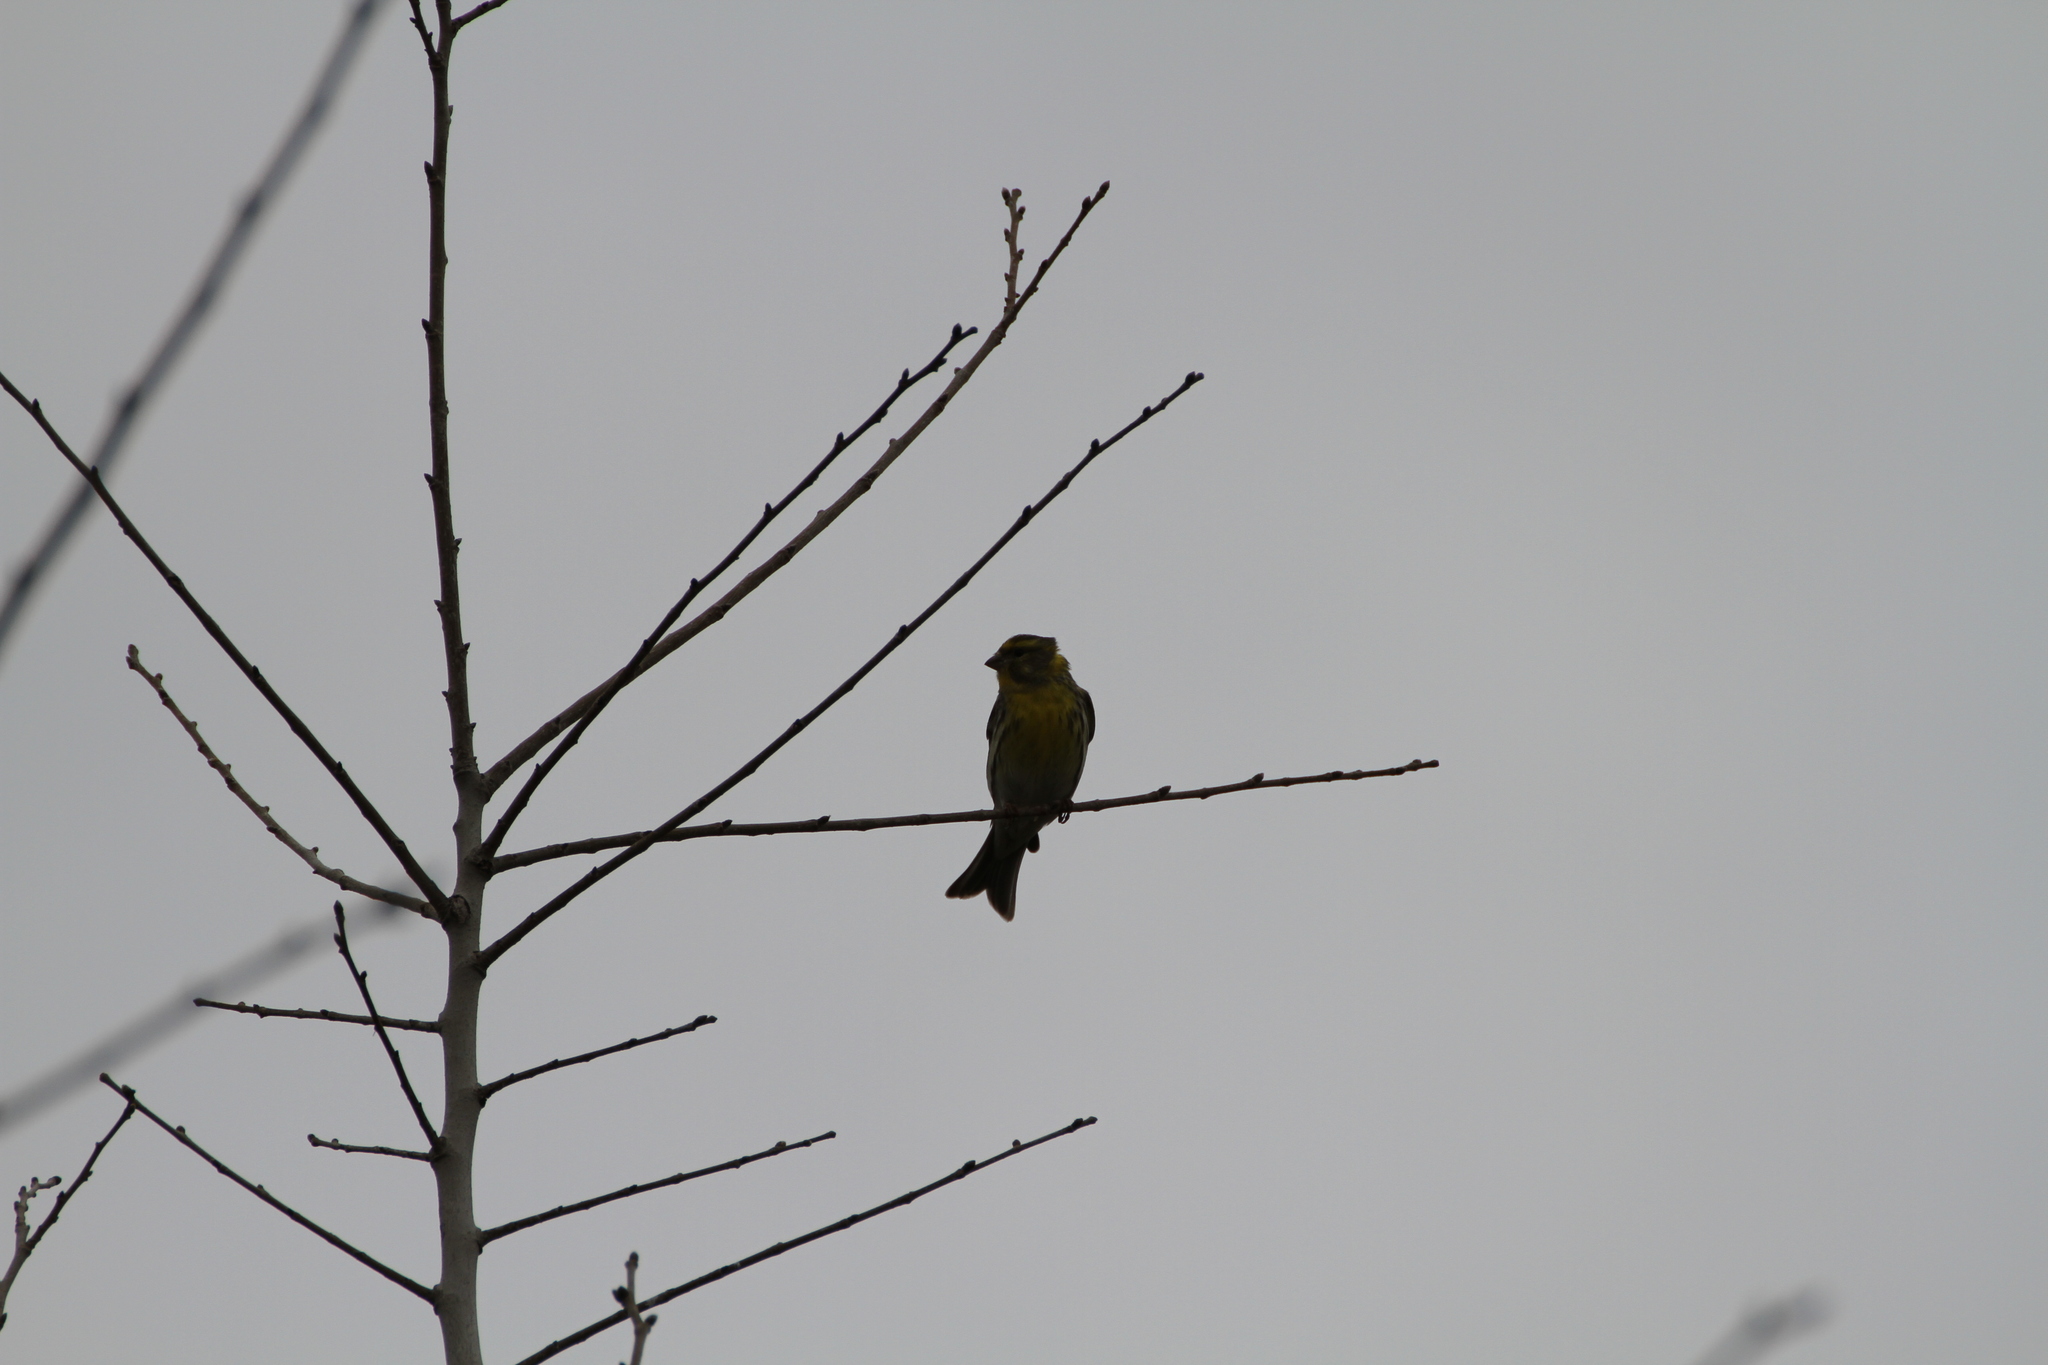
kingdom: Animalia
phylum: Chordata
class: Aves
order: Passeriformes
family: Fringillidae
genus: Serinus
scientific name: Serinus serinus
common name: European serin
